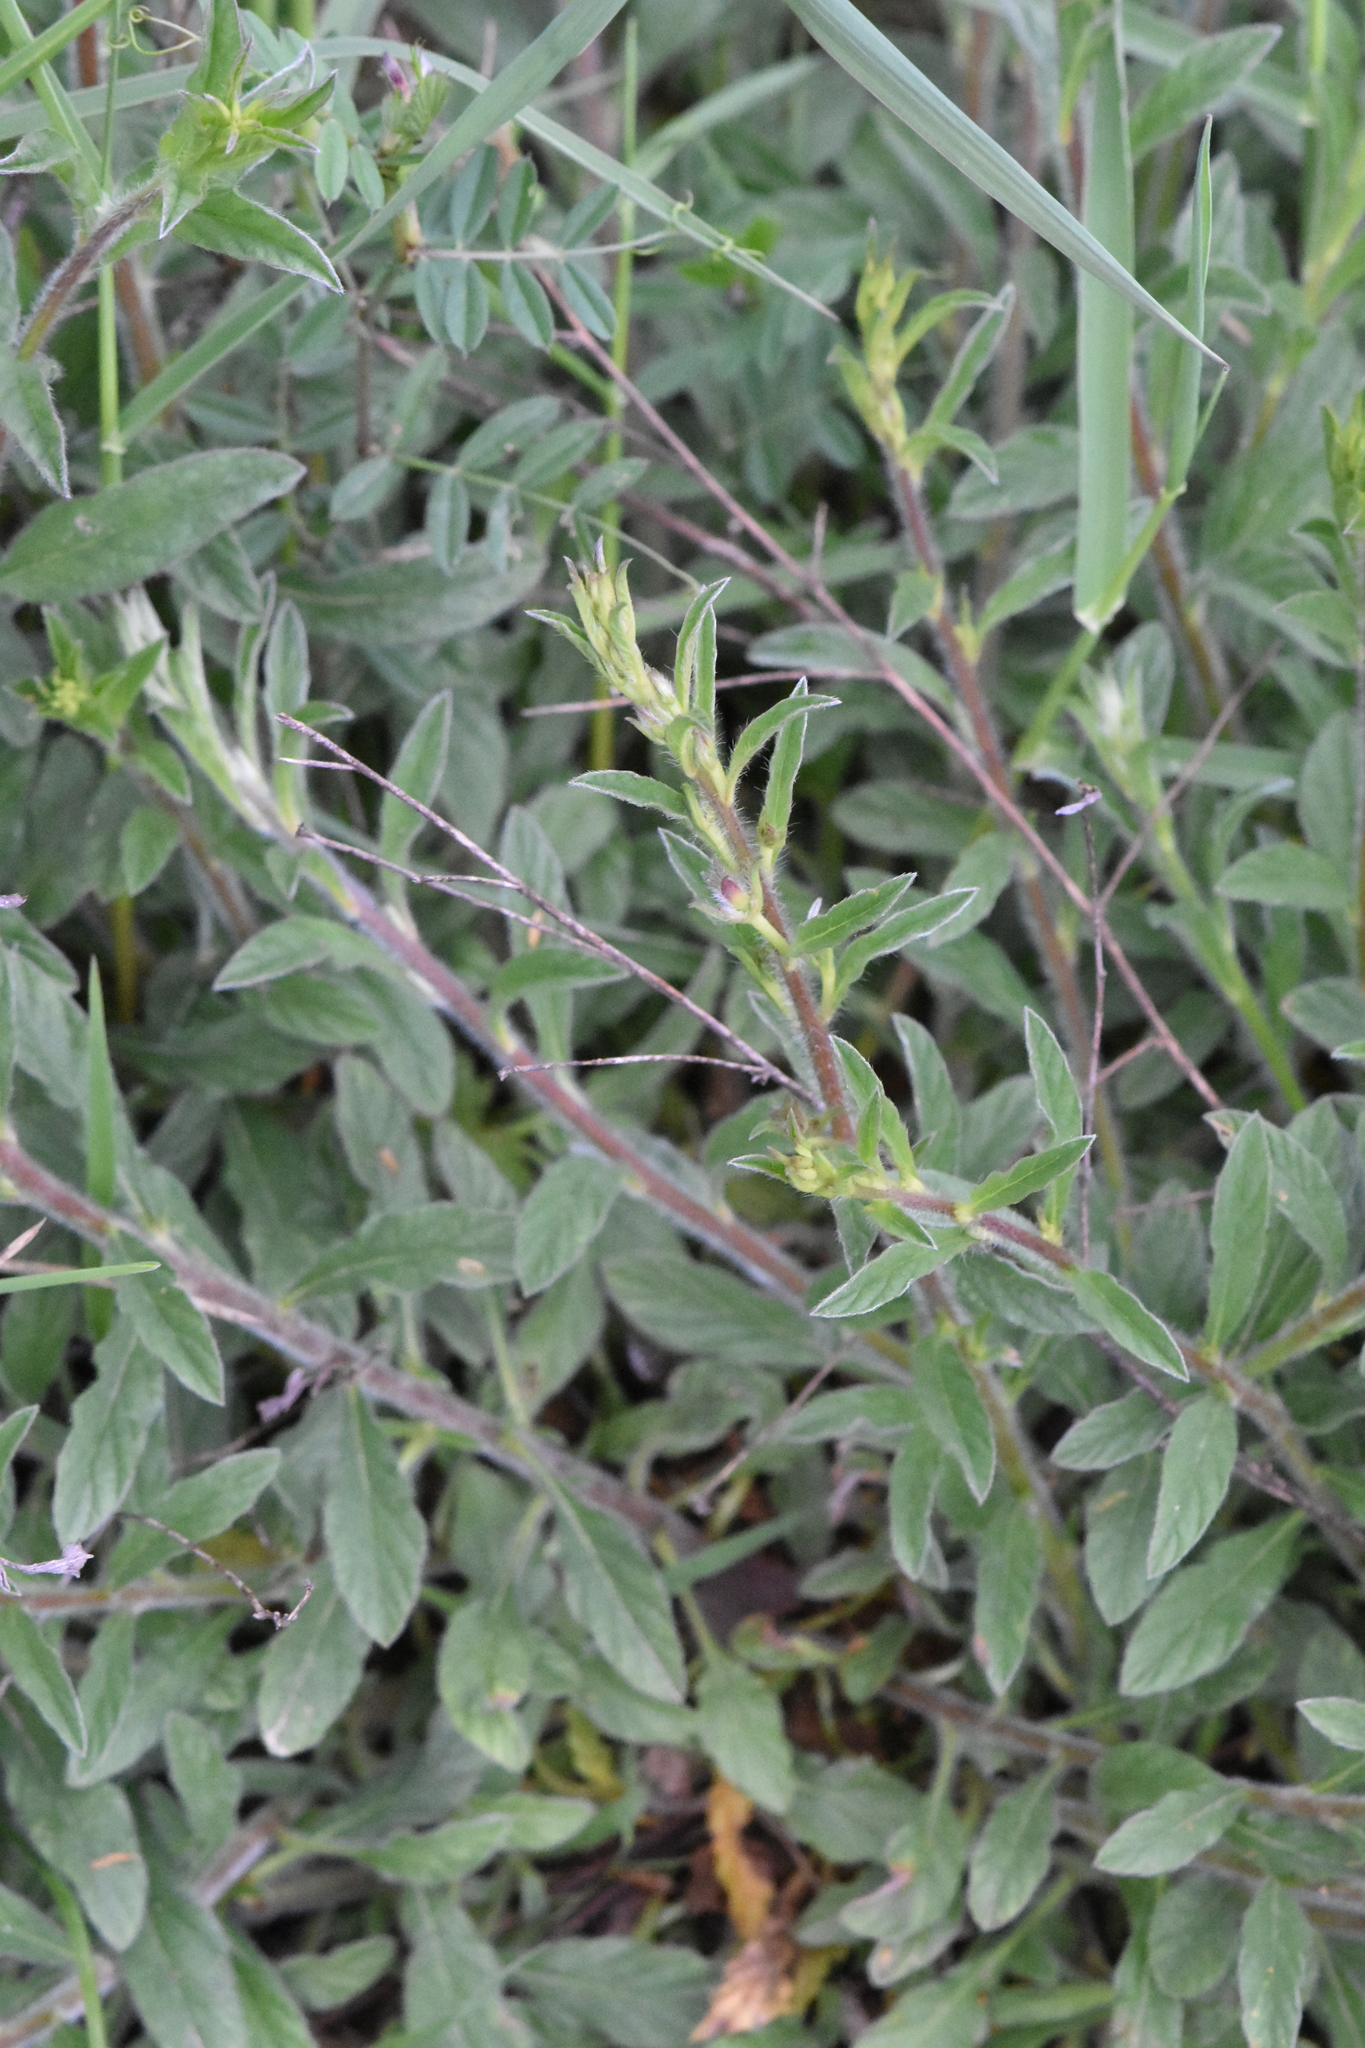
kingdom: Plantae
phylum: Tracheophyta
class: Magnoliopsida
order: Solanales
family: Convolvulaceae
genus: Convolvulus
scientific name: Convolvulus cantabrica
